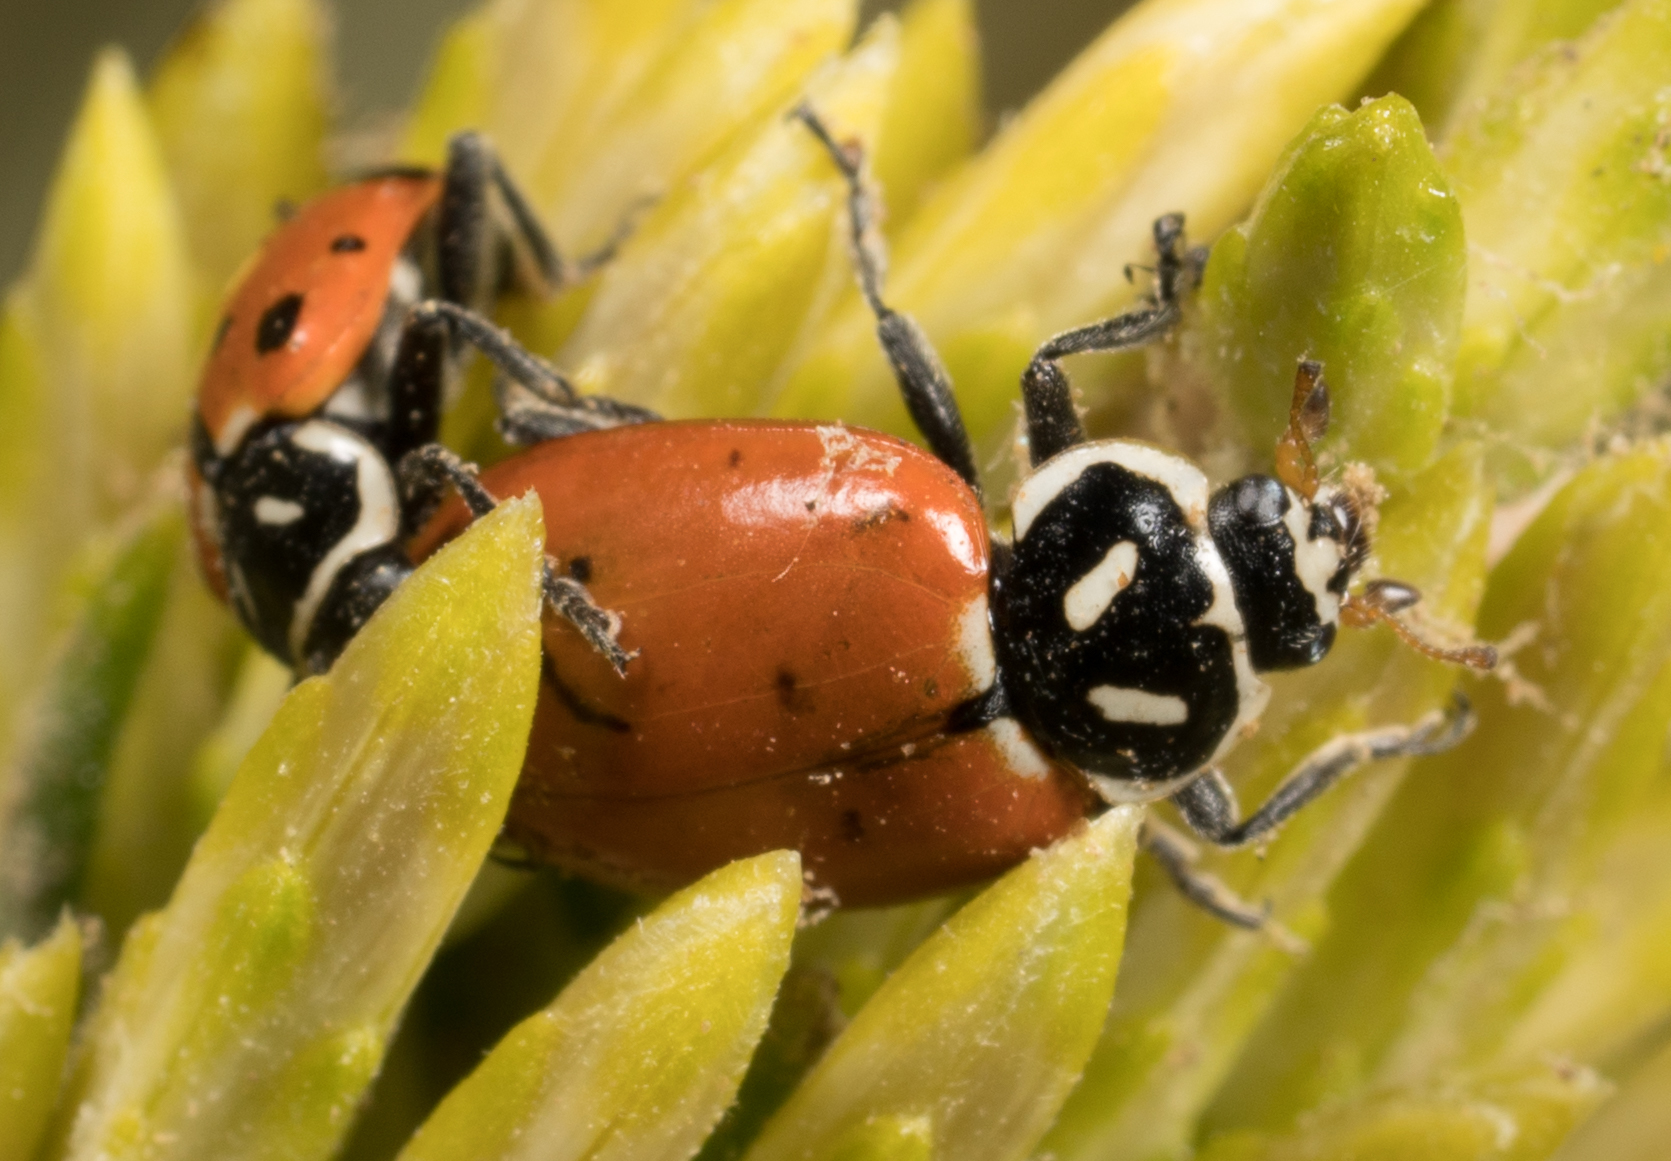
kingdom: Animalia
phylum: Arthropoda
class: Insecta
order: Coleoptera
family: Coccinellidae
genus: Hippodamia
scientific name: Hippodamia convergens
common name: Convergent lady beetle
